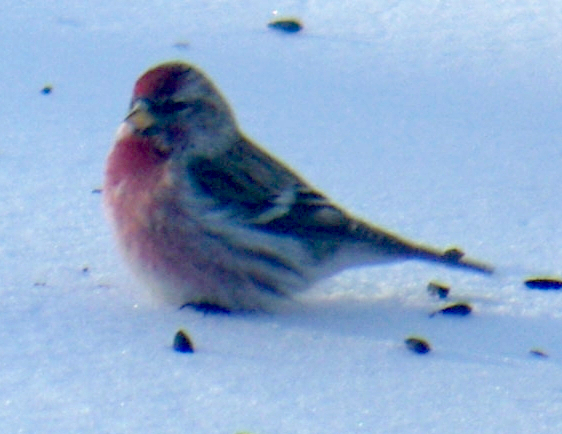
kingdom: Animalia
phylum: Chordata
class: Aves
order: Passeriformes
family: Fringillidae
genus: Acanthis
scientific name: Acanthis flammea
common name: Common redpoll
